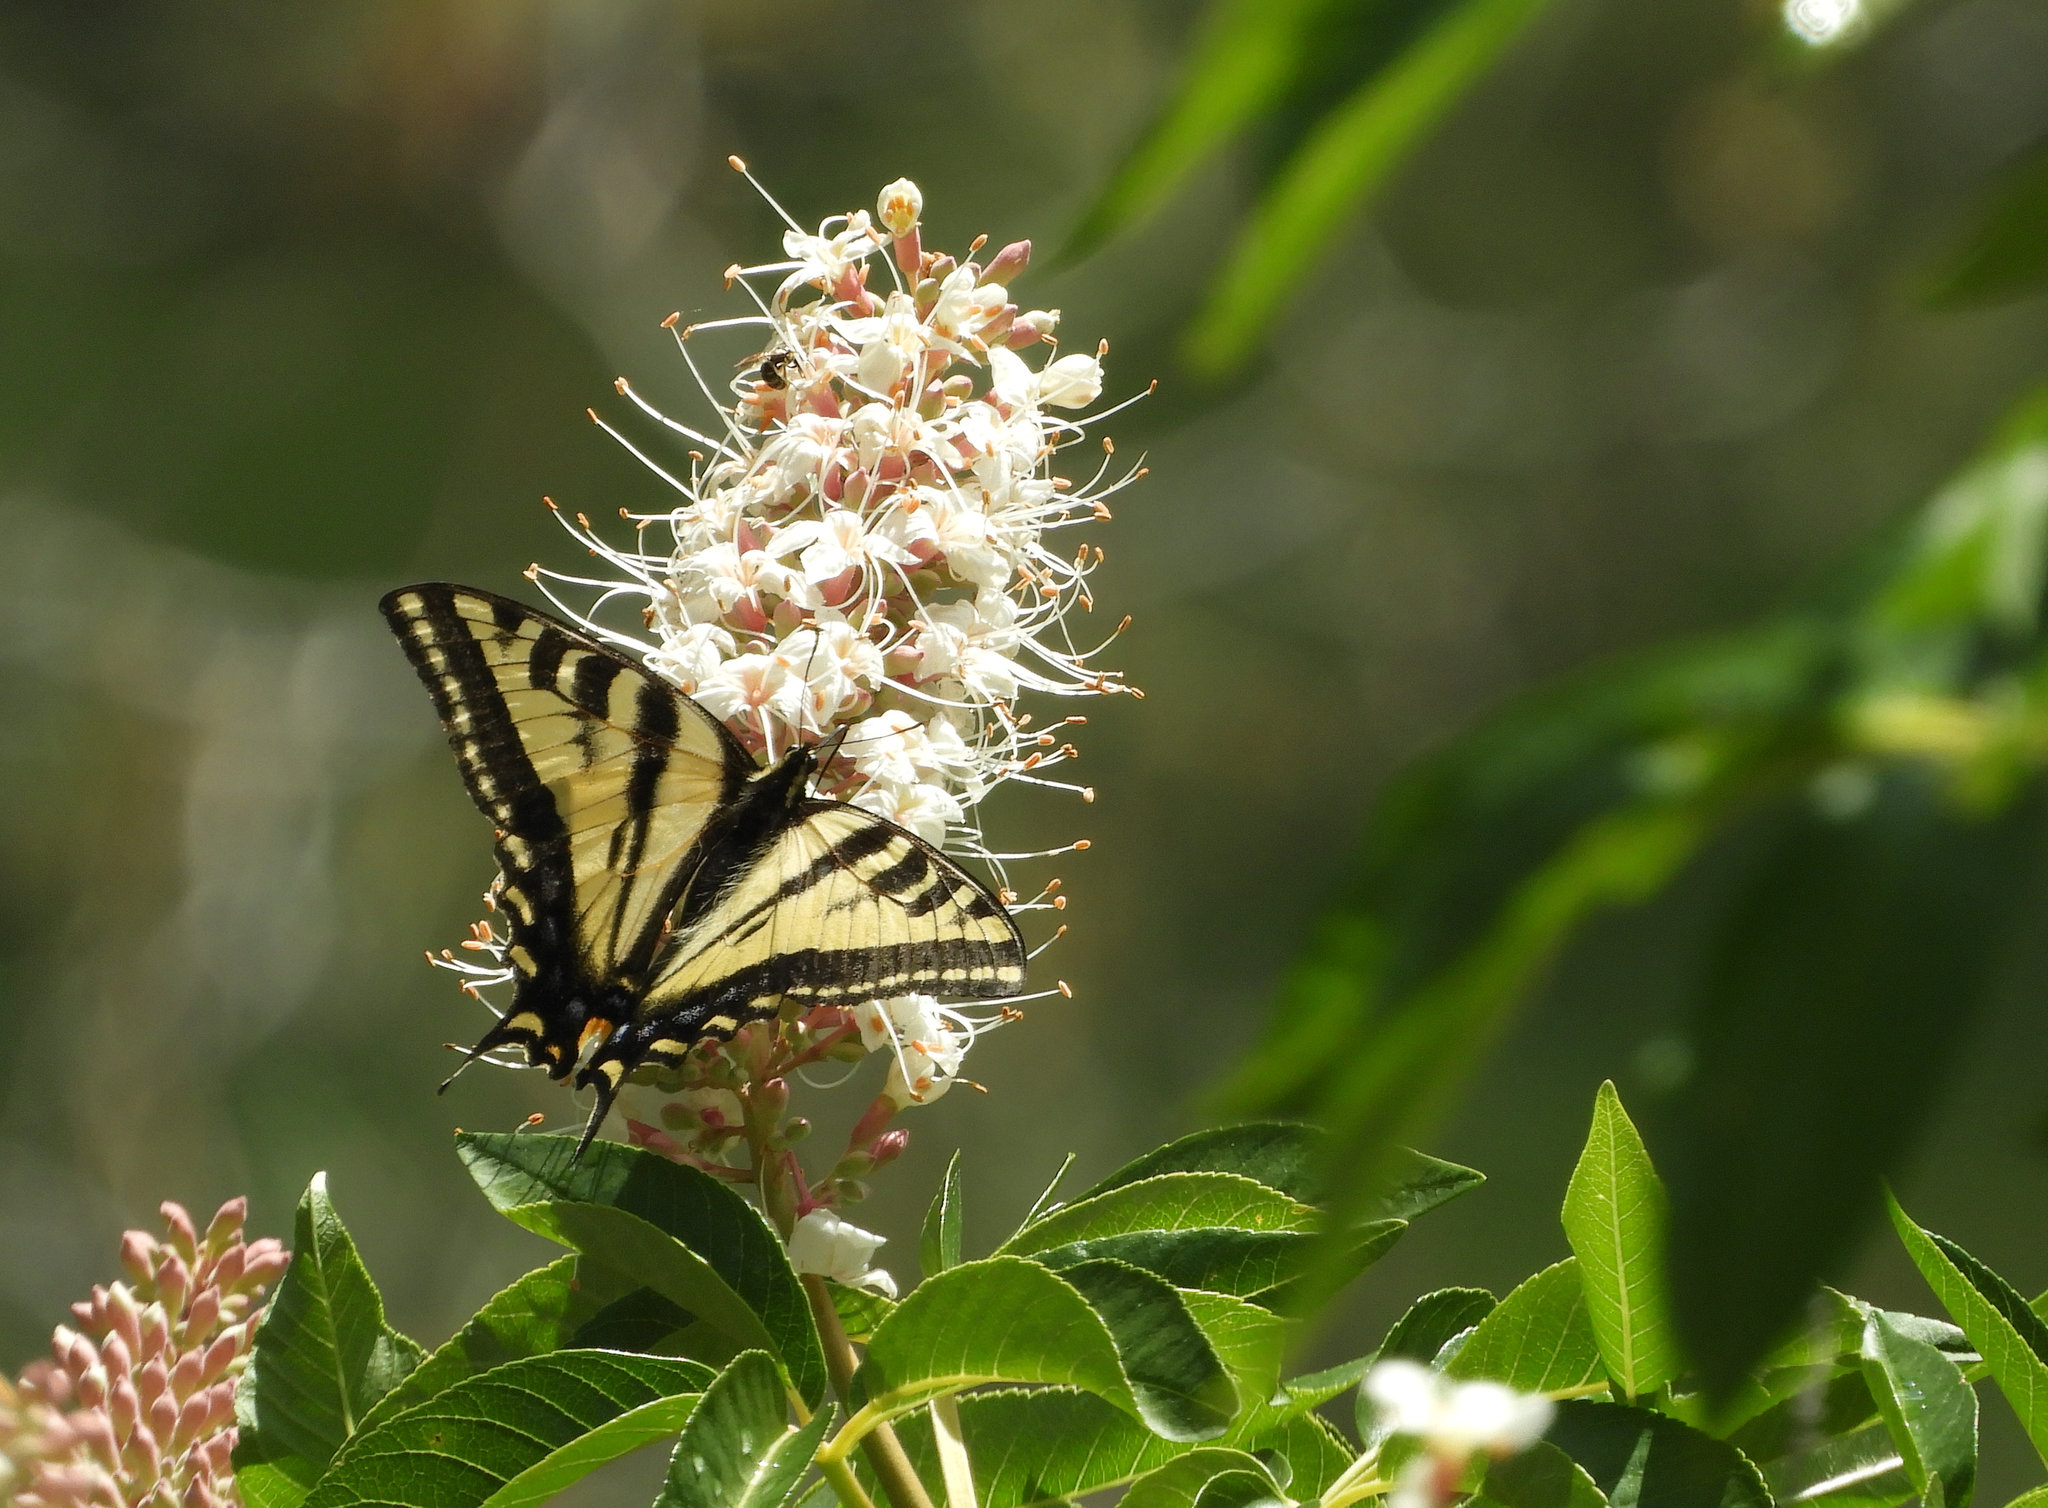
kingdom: Animalia
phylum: Arthropoda
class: Insecta
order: Lepidoptera
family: Papilionidae
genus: Papilio
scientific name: Papilio rutulus
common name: Western tiger swallowtail
